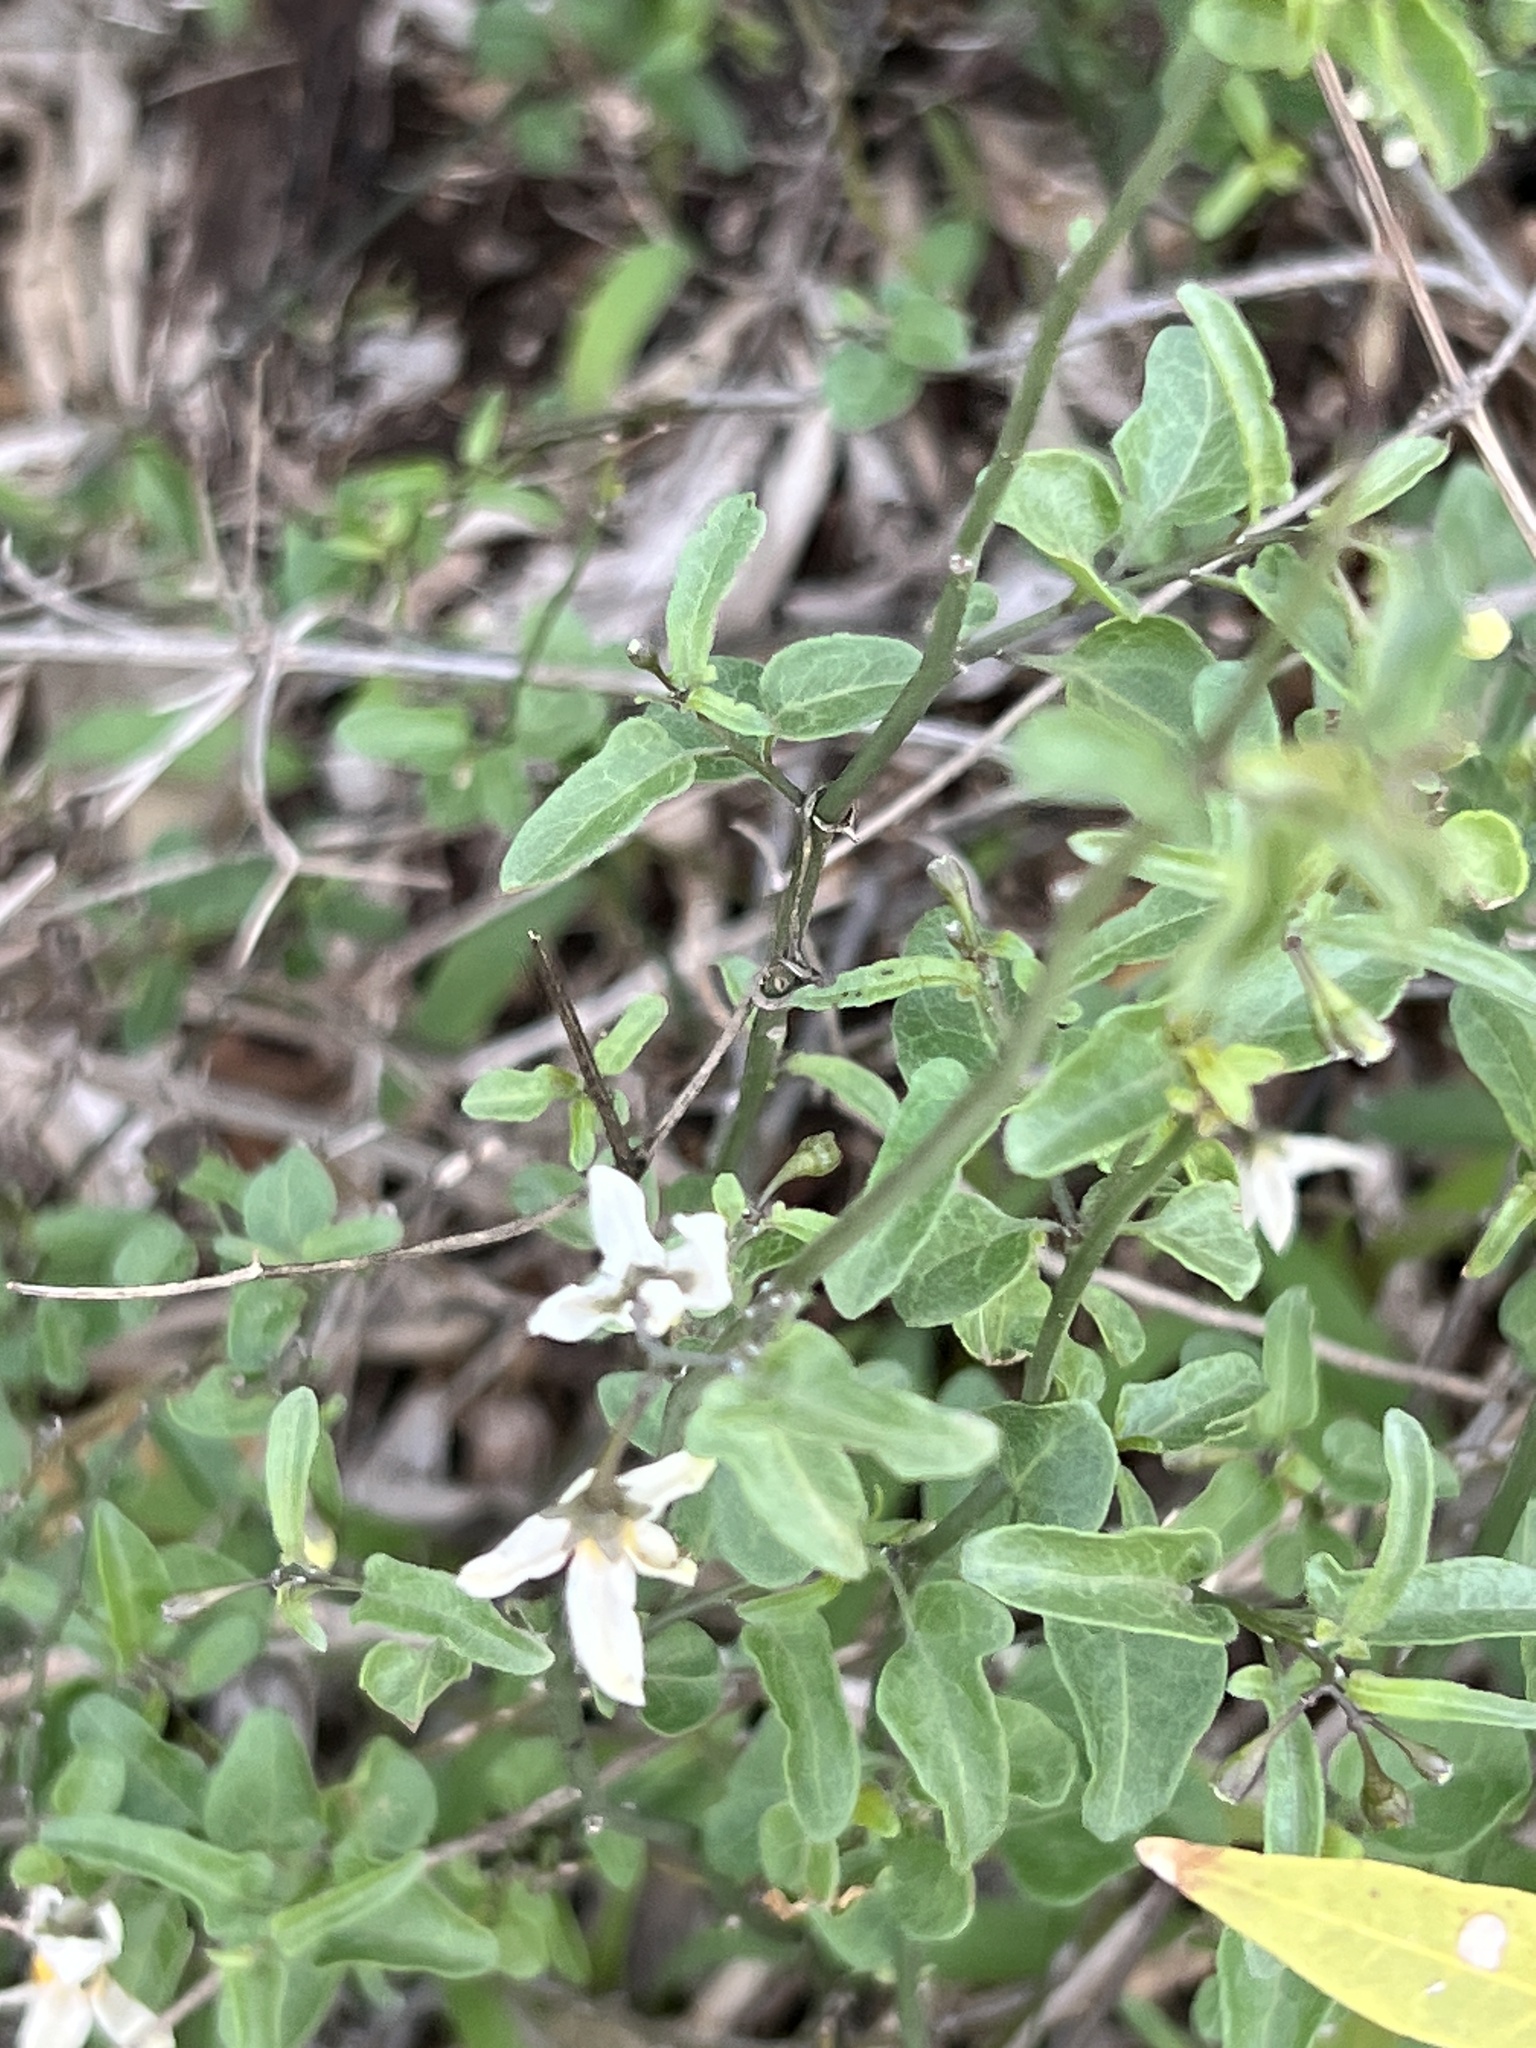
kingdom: Plantae
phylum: Tracheophyta
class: Magnoliopsida
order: Solanales
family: Solanaceae
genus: Solanum
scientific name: Solanum triquetrum
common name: Texas nightshade
